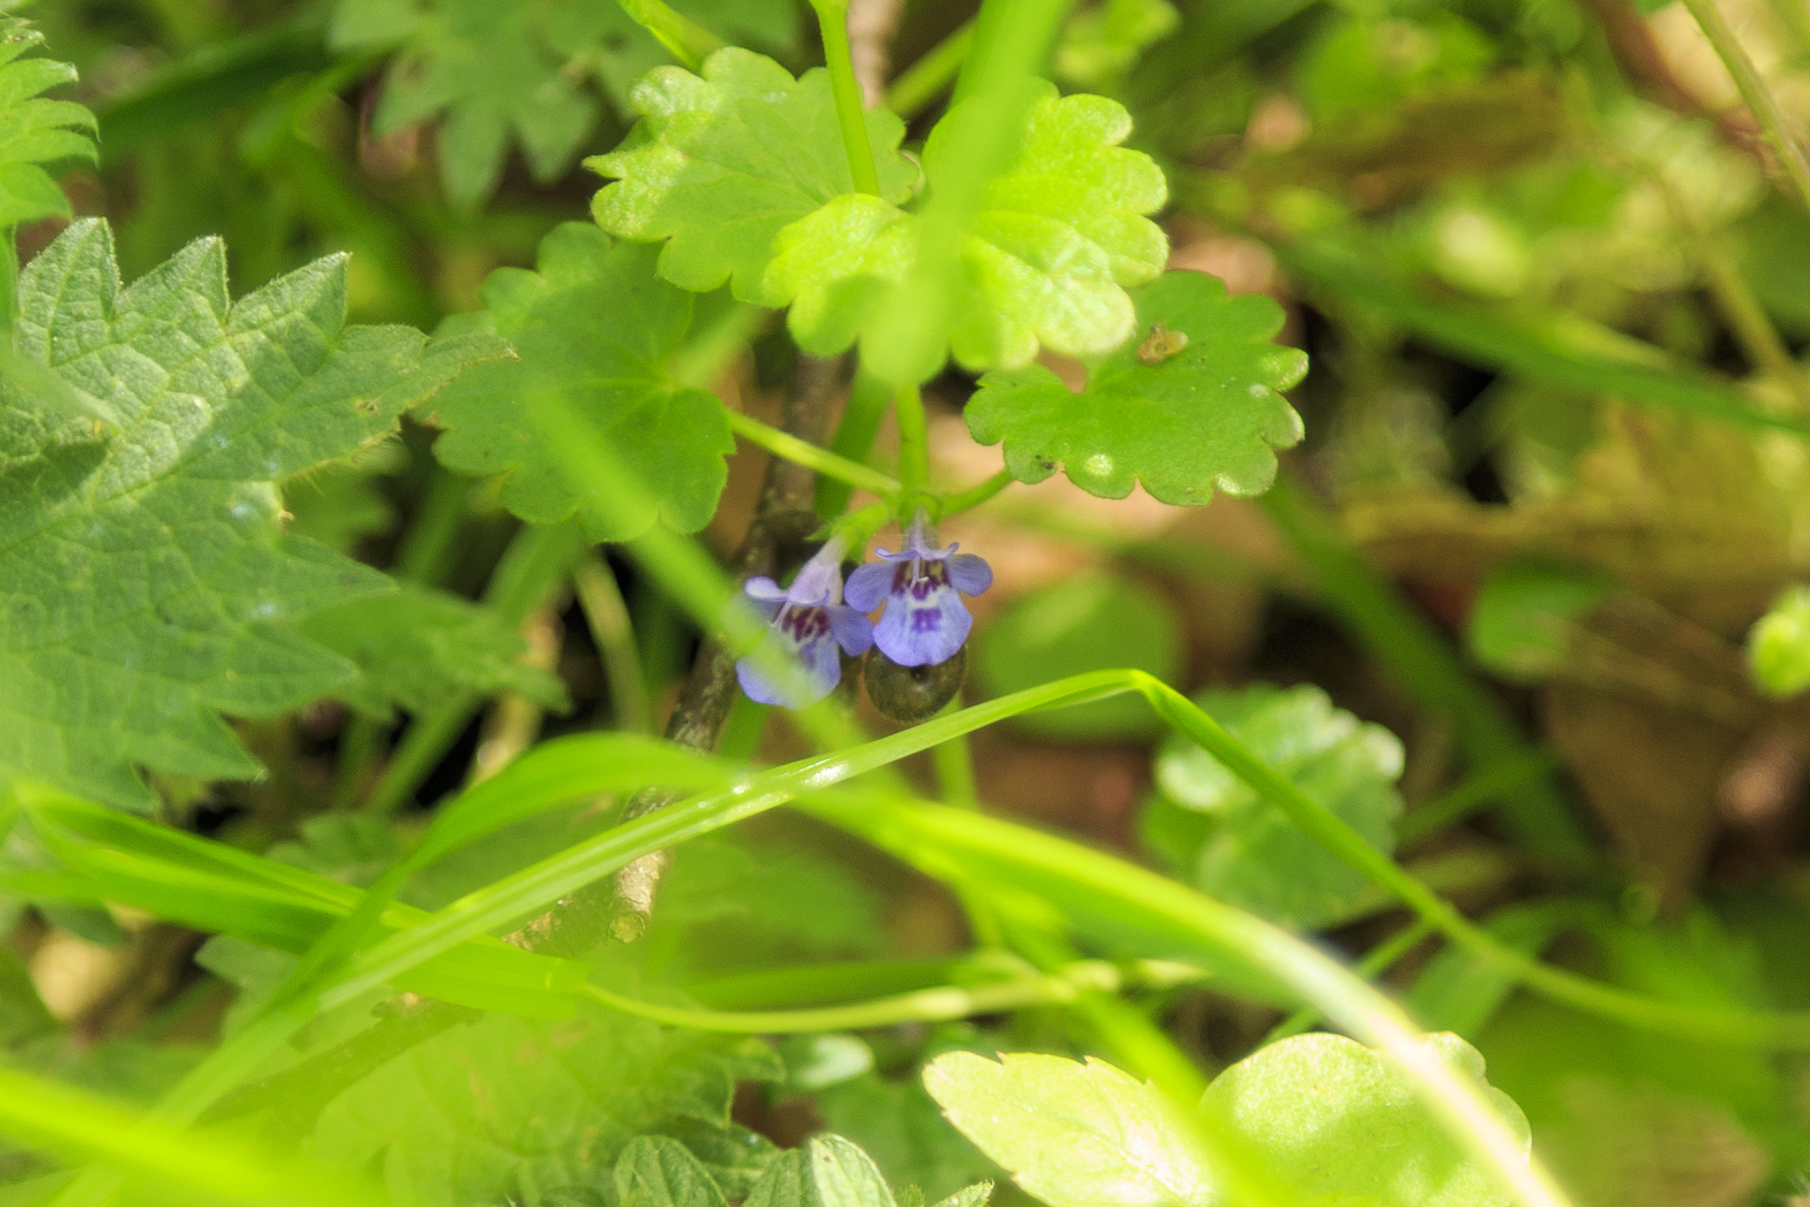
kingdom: Plantae
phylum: Tracheophyta
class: Magnoliopsida
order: Lamiales
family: Lamiaceae
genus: Glechoma
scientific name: Glechoma hederacea
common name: Ground ivy
